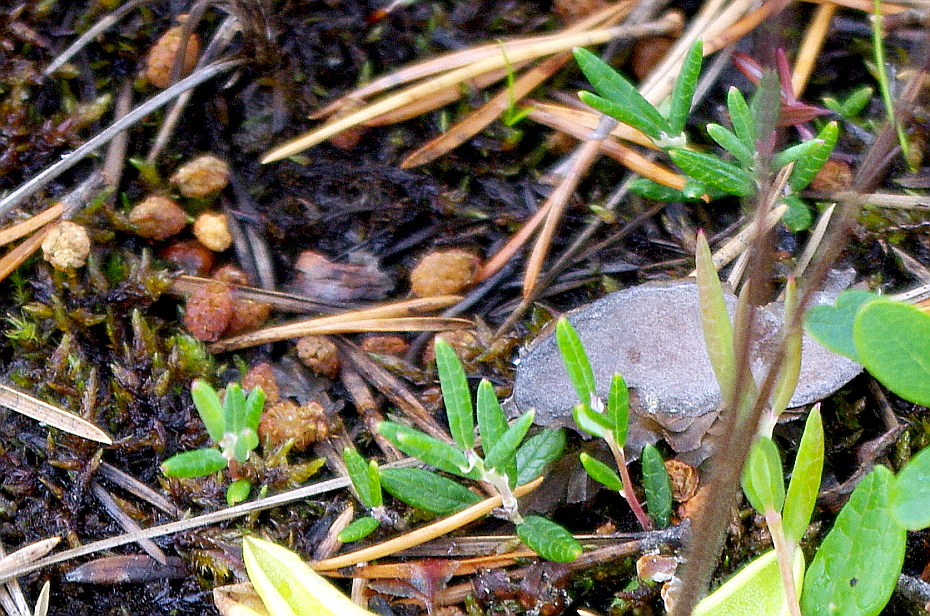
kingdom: Plantae
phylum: Tracheophyta
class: Magnoliopsida
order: Ericales
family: Ericaceae
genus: Andromeda
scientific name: Andromeda polifolia
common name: Bog-rosemary
